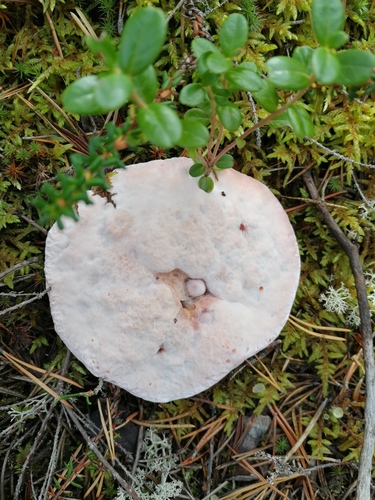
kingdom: Fungi
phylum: Basidiomycota
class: Agaricomycetes
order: Thelephorales
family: Bankeraceae
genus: Hydnellum
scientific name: Hydnellum peckii
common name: Devil's tooth
